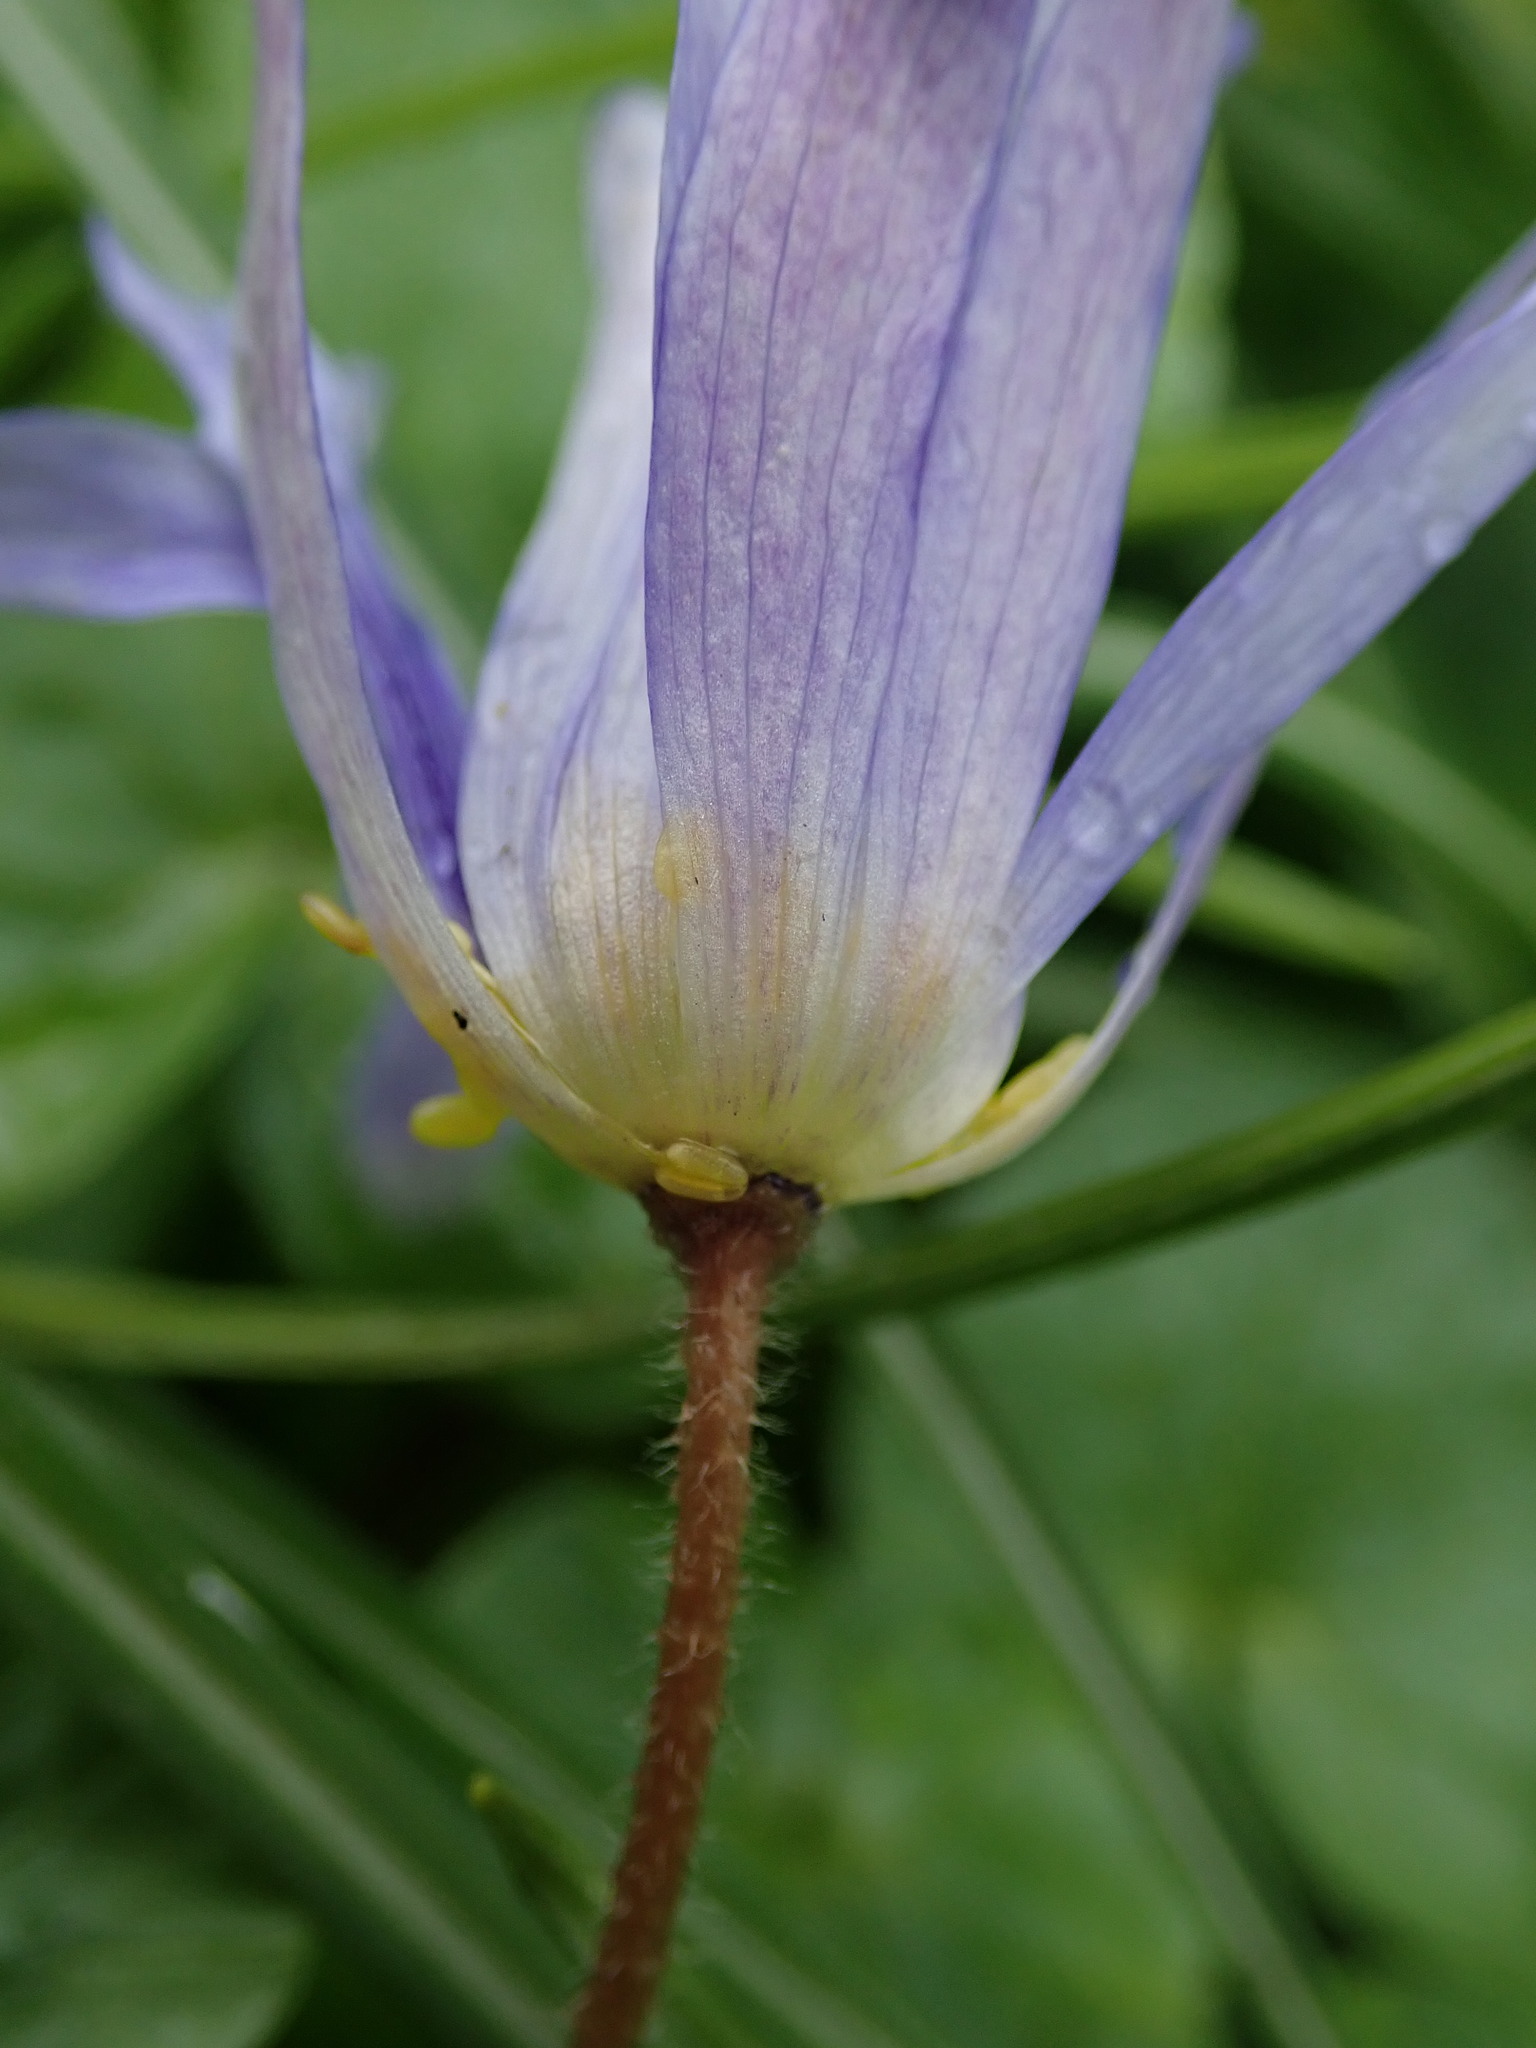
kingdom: Plantae
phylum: Tracheophyta
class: Magnoliopsida
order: Ranunculales
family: Ranunculaceae
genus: Anemone
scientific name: Anemone blanda
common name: Balkan anemone
